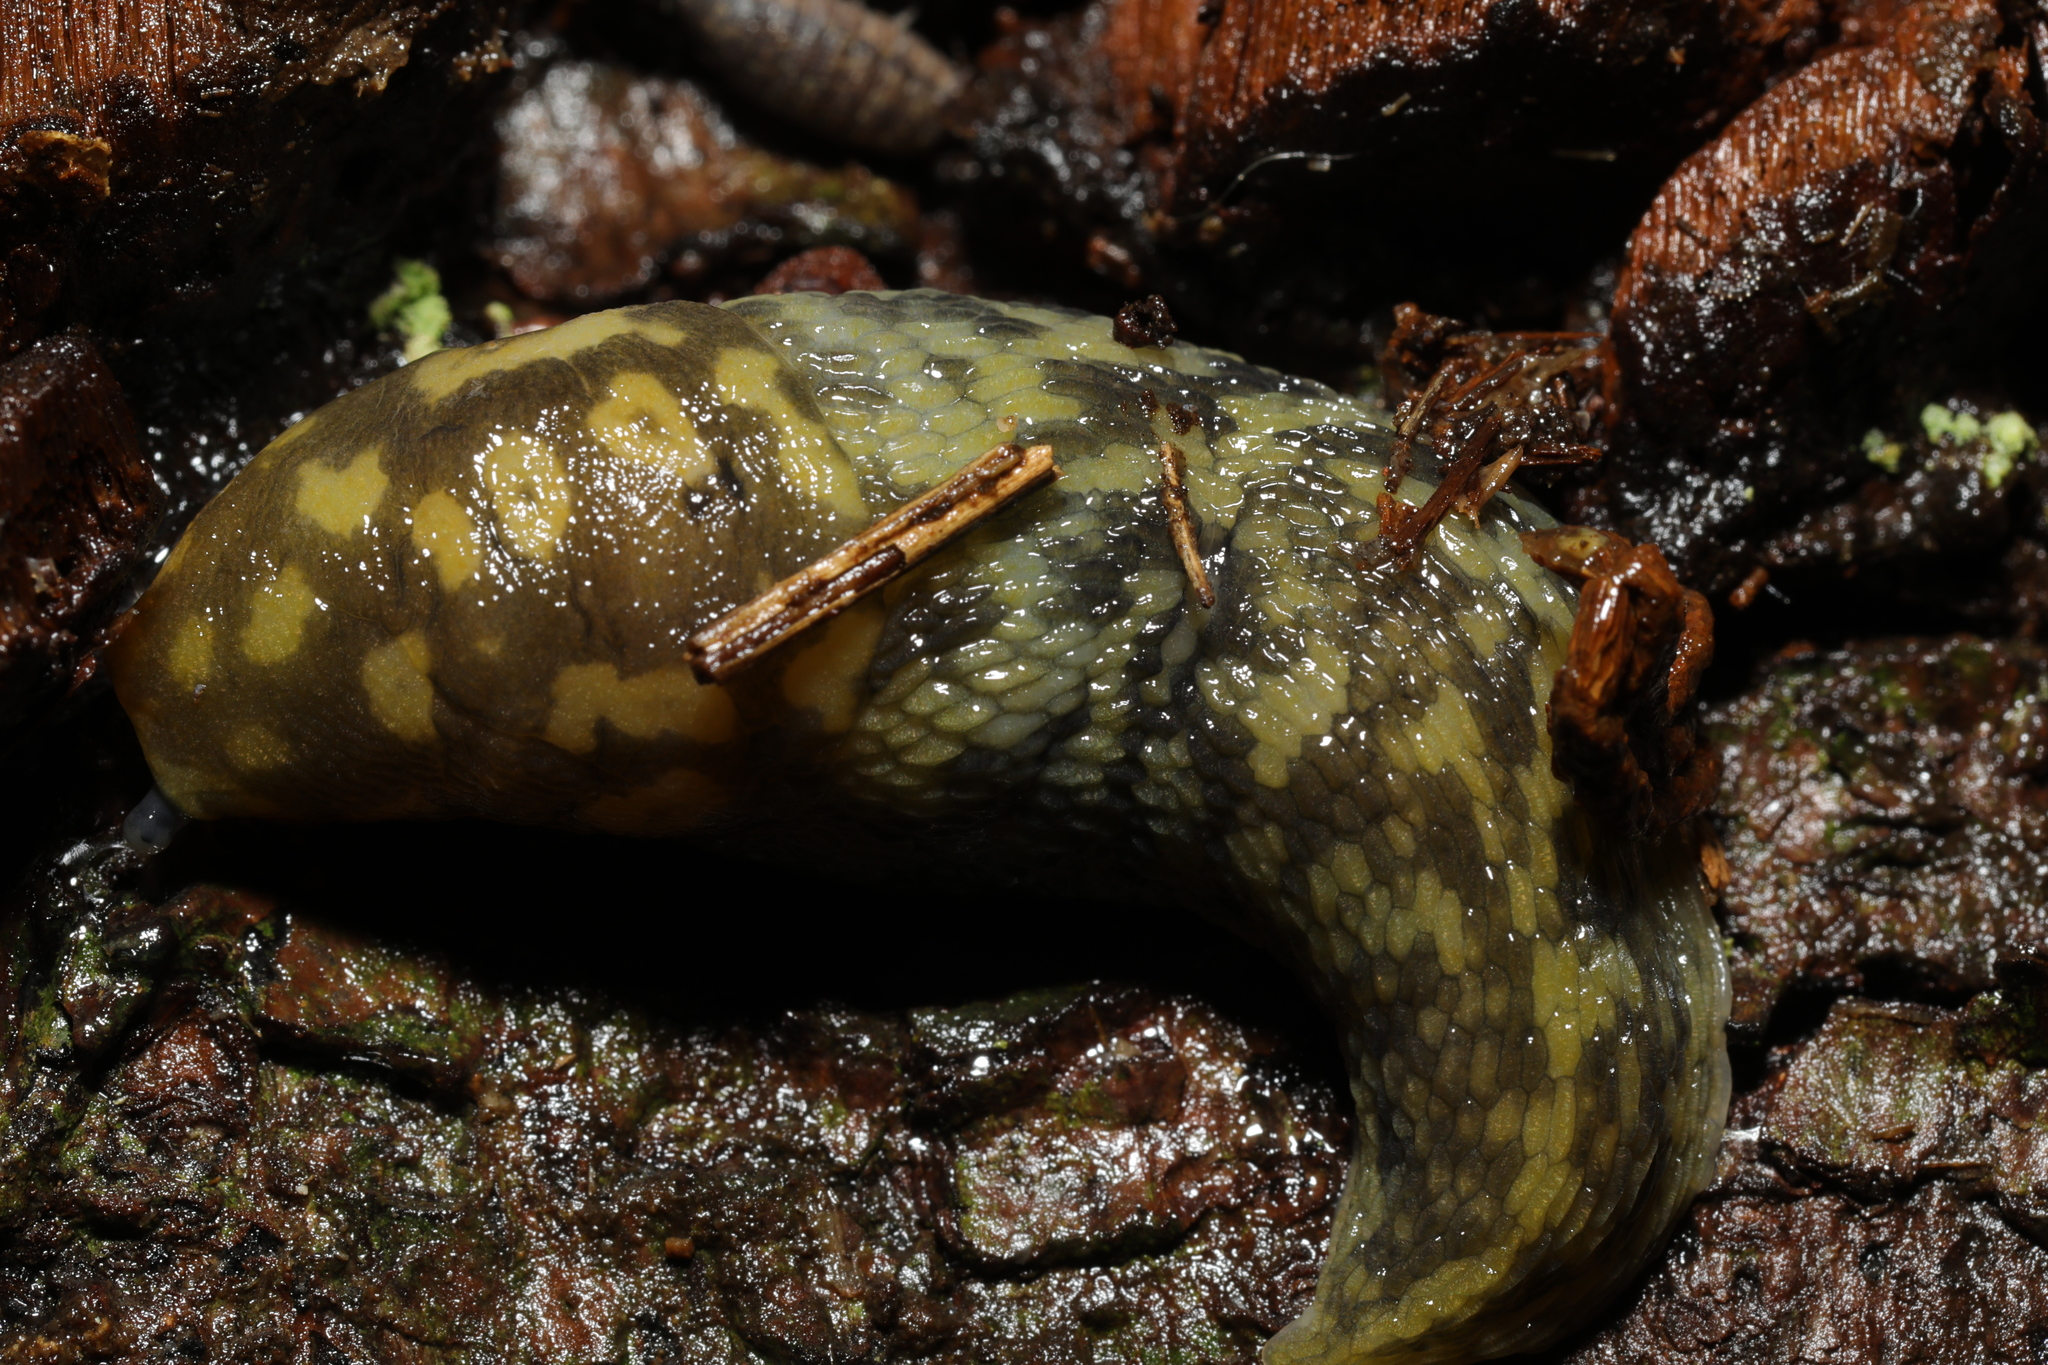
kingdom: Animalia
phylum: Mollusca
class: Gastropoda
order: Stylommatophora
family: Limacidae
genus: Limacus
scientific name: Limacus maculatus
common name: Irish yellow slug
